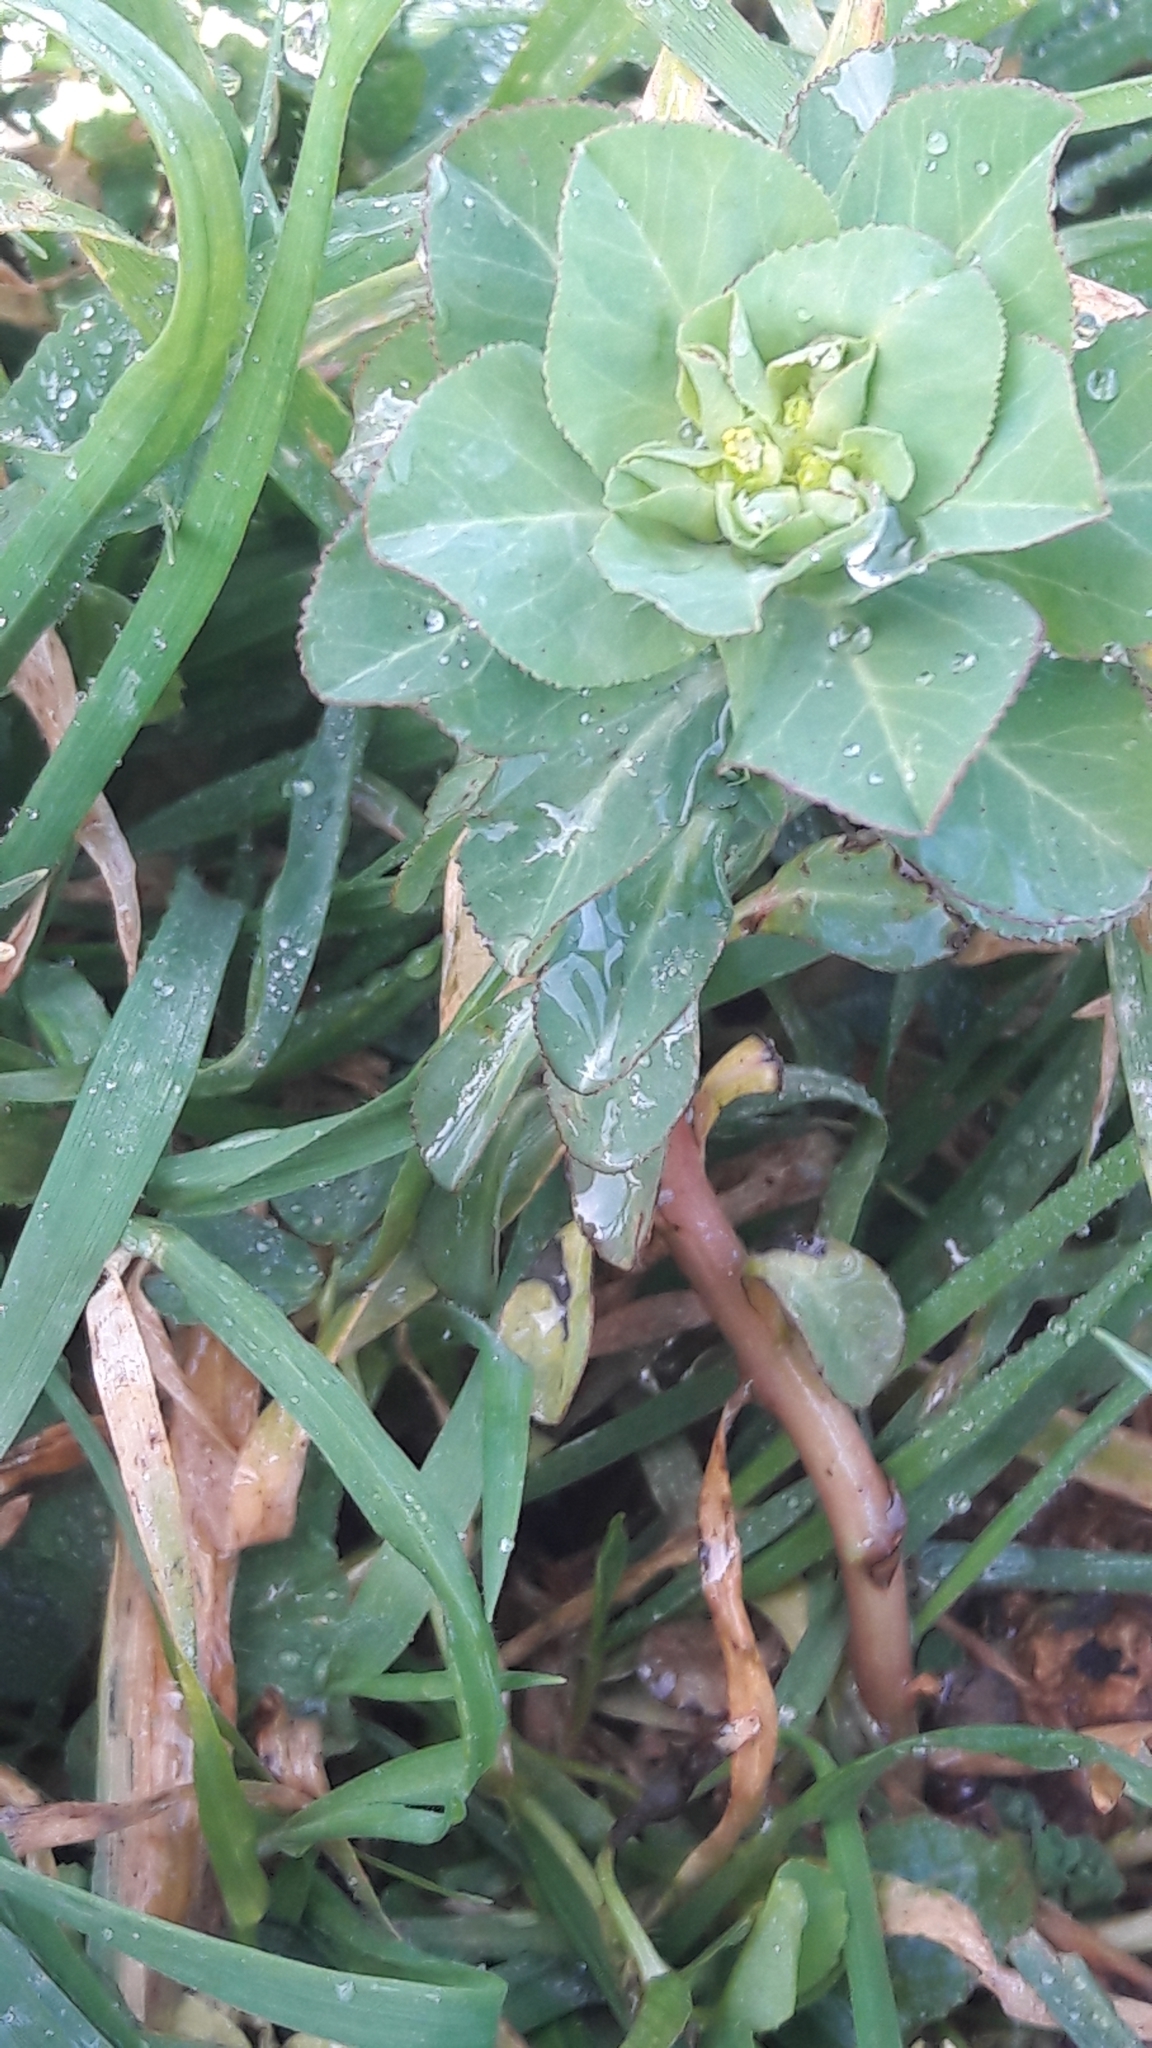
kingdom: Plantae
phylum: Tracheophyta
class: Magnoliopsida
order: Malpighiales
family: Euphorbiaceae
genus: Euphorbia
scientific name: Euphorbia helioscopia
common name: Sun spurge
